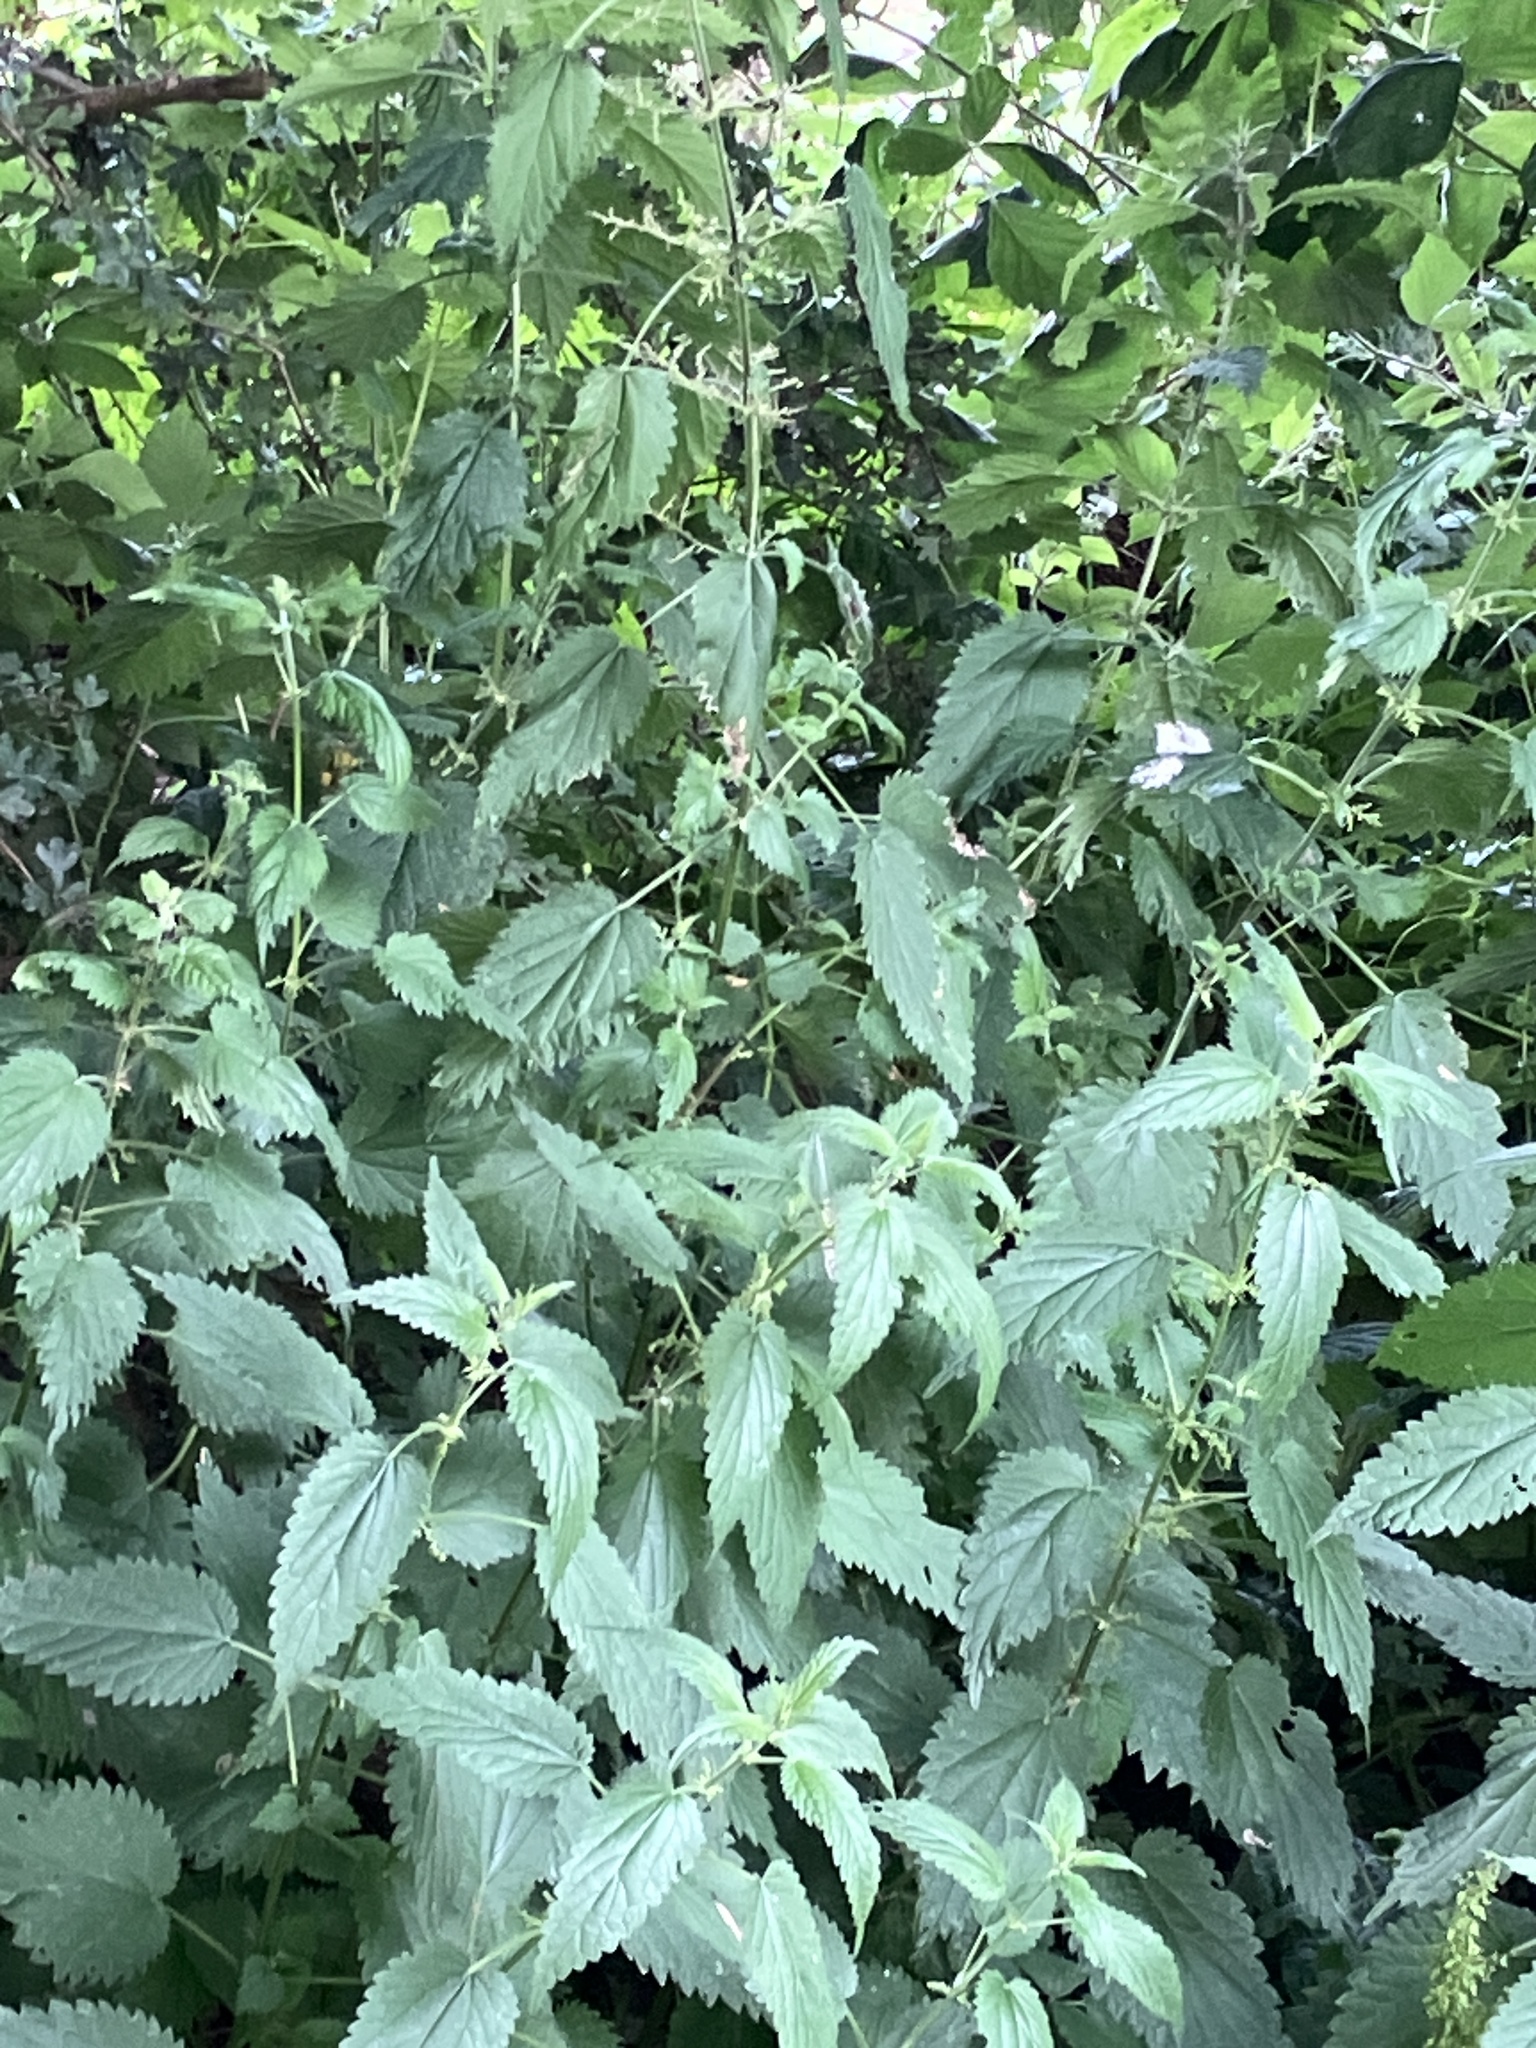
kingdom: Plantae
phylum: Tracheophyta
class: Magnoliopsida
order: Rosales
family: Urticaceae
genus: Urtica
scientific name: Urtica dioica
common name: Common nettle
